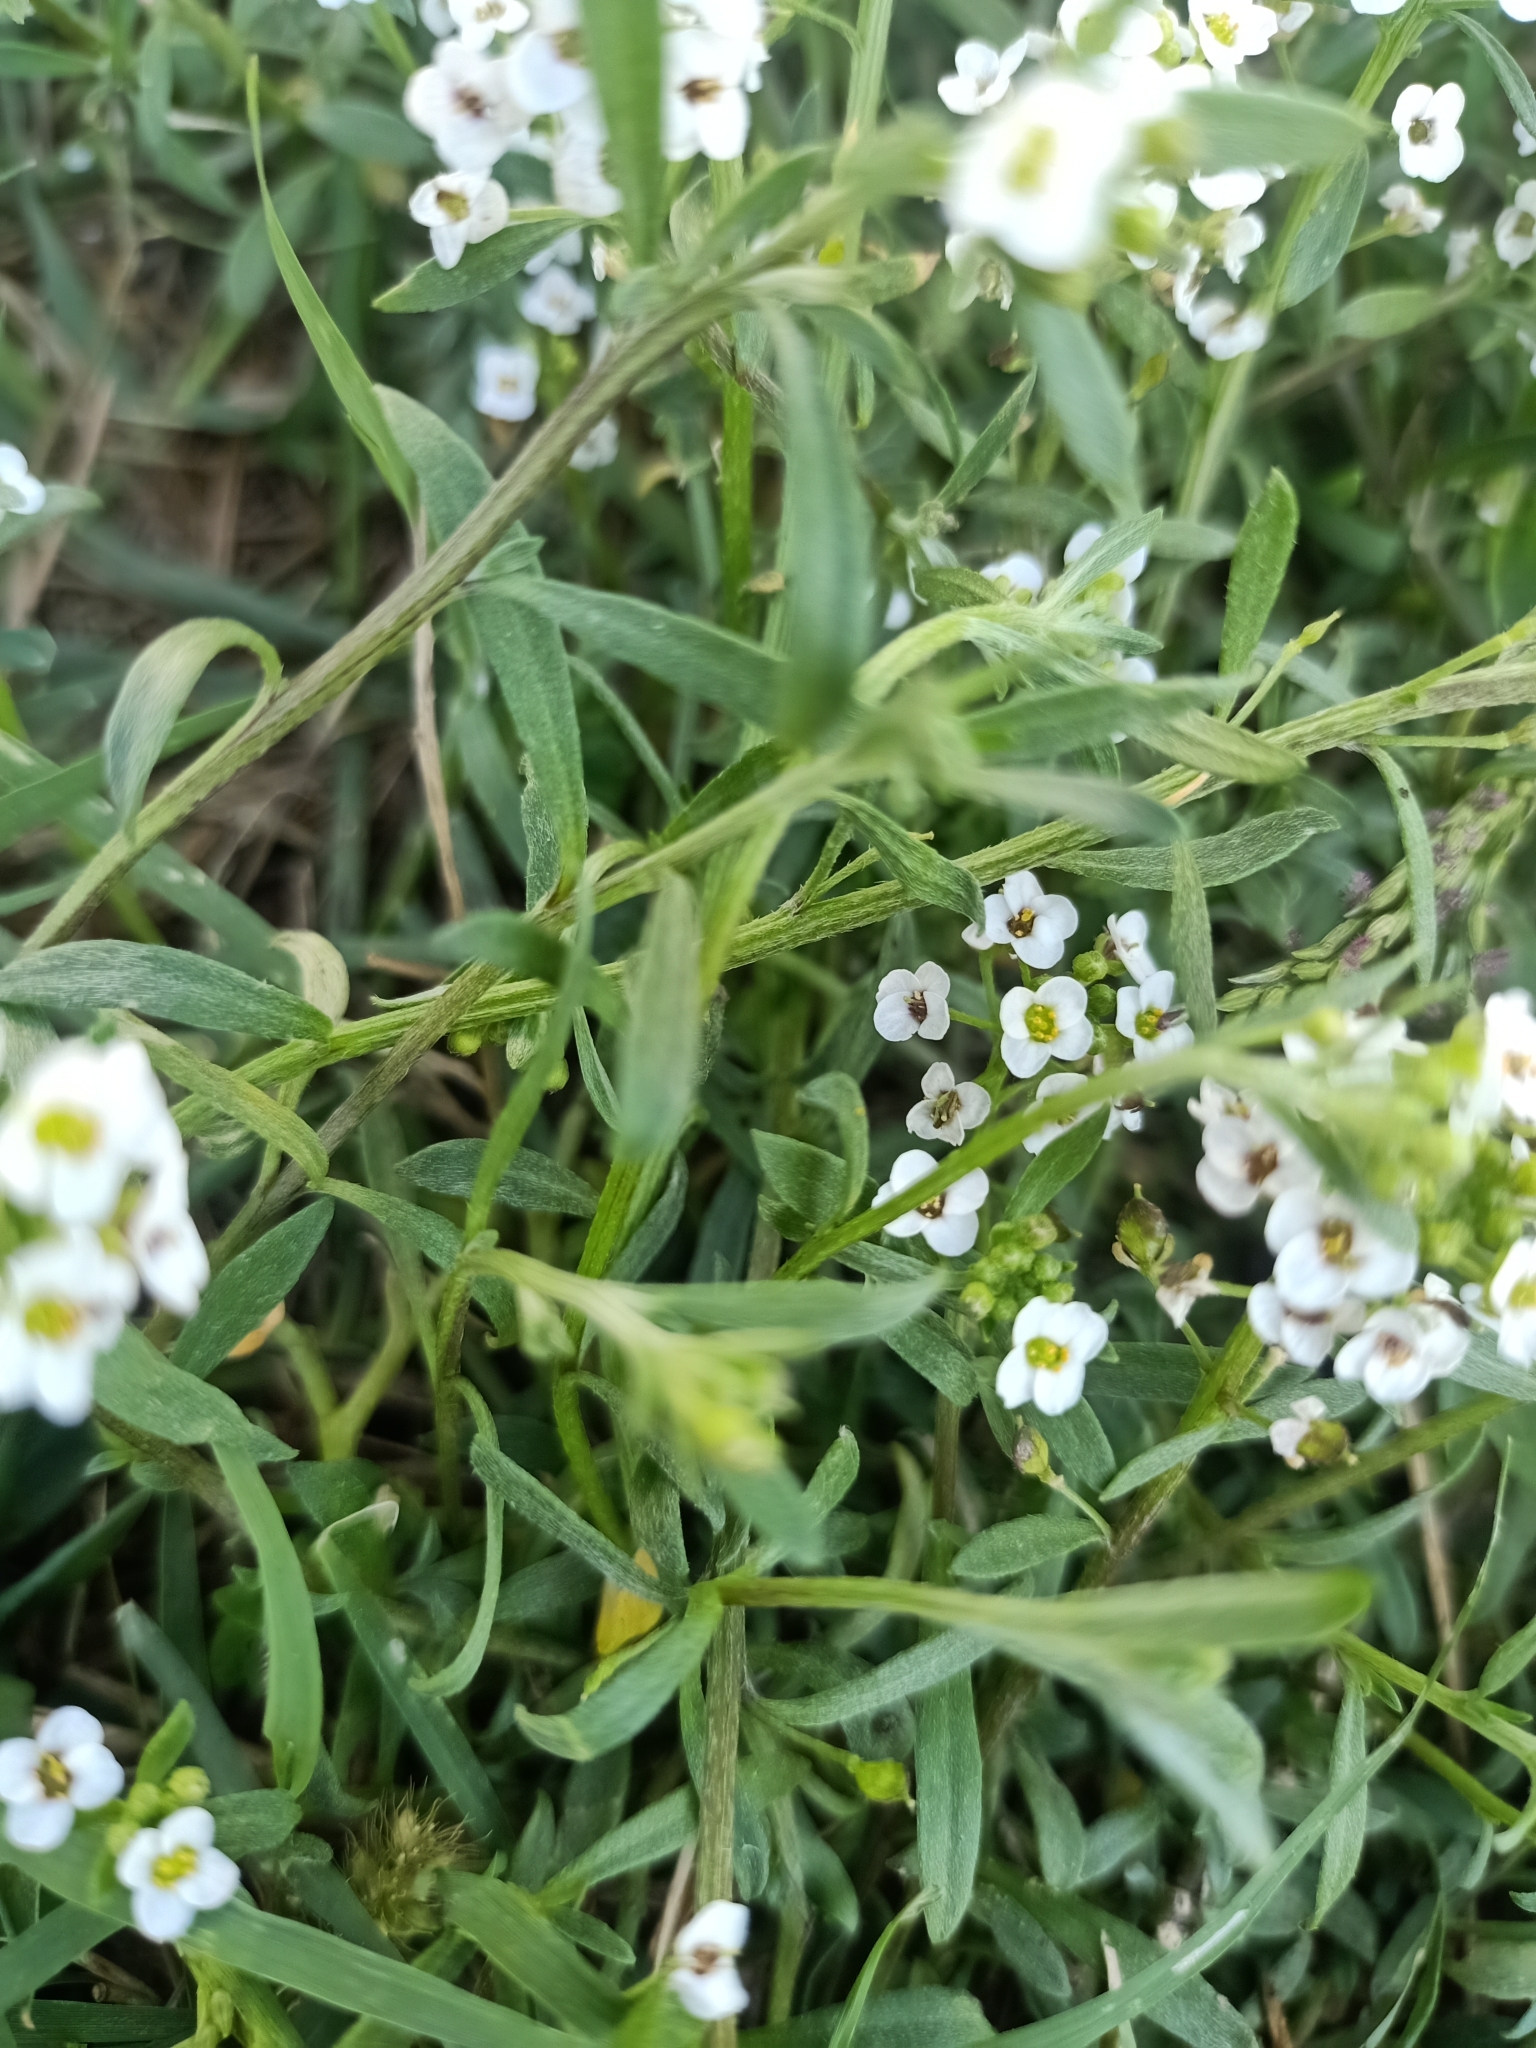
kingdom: Plantae
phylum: Tracheophyta
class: Magnoliopsida
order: Brassicales
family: Brassicaceae
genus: Lobularia
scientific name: Lobularia maritima
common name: Sweet alison
